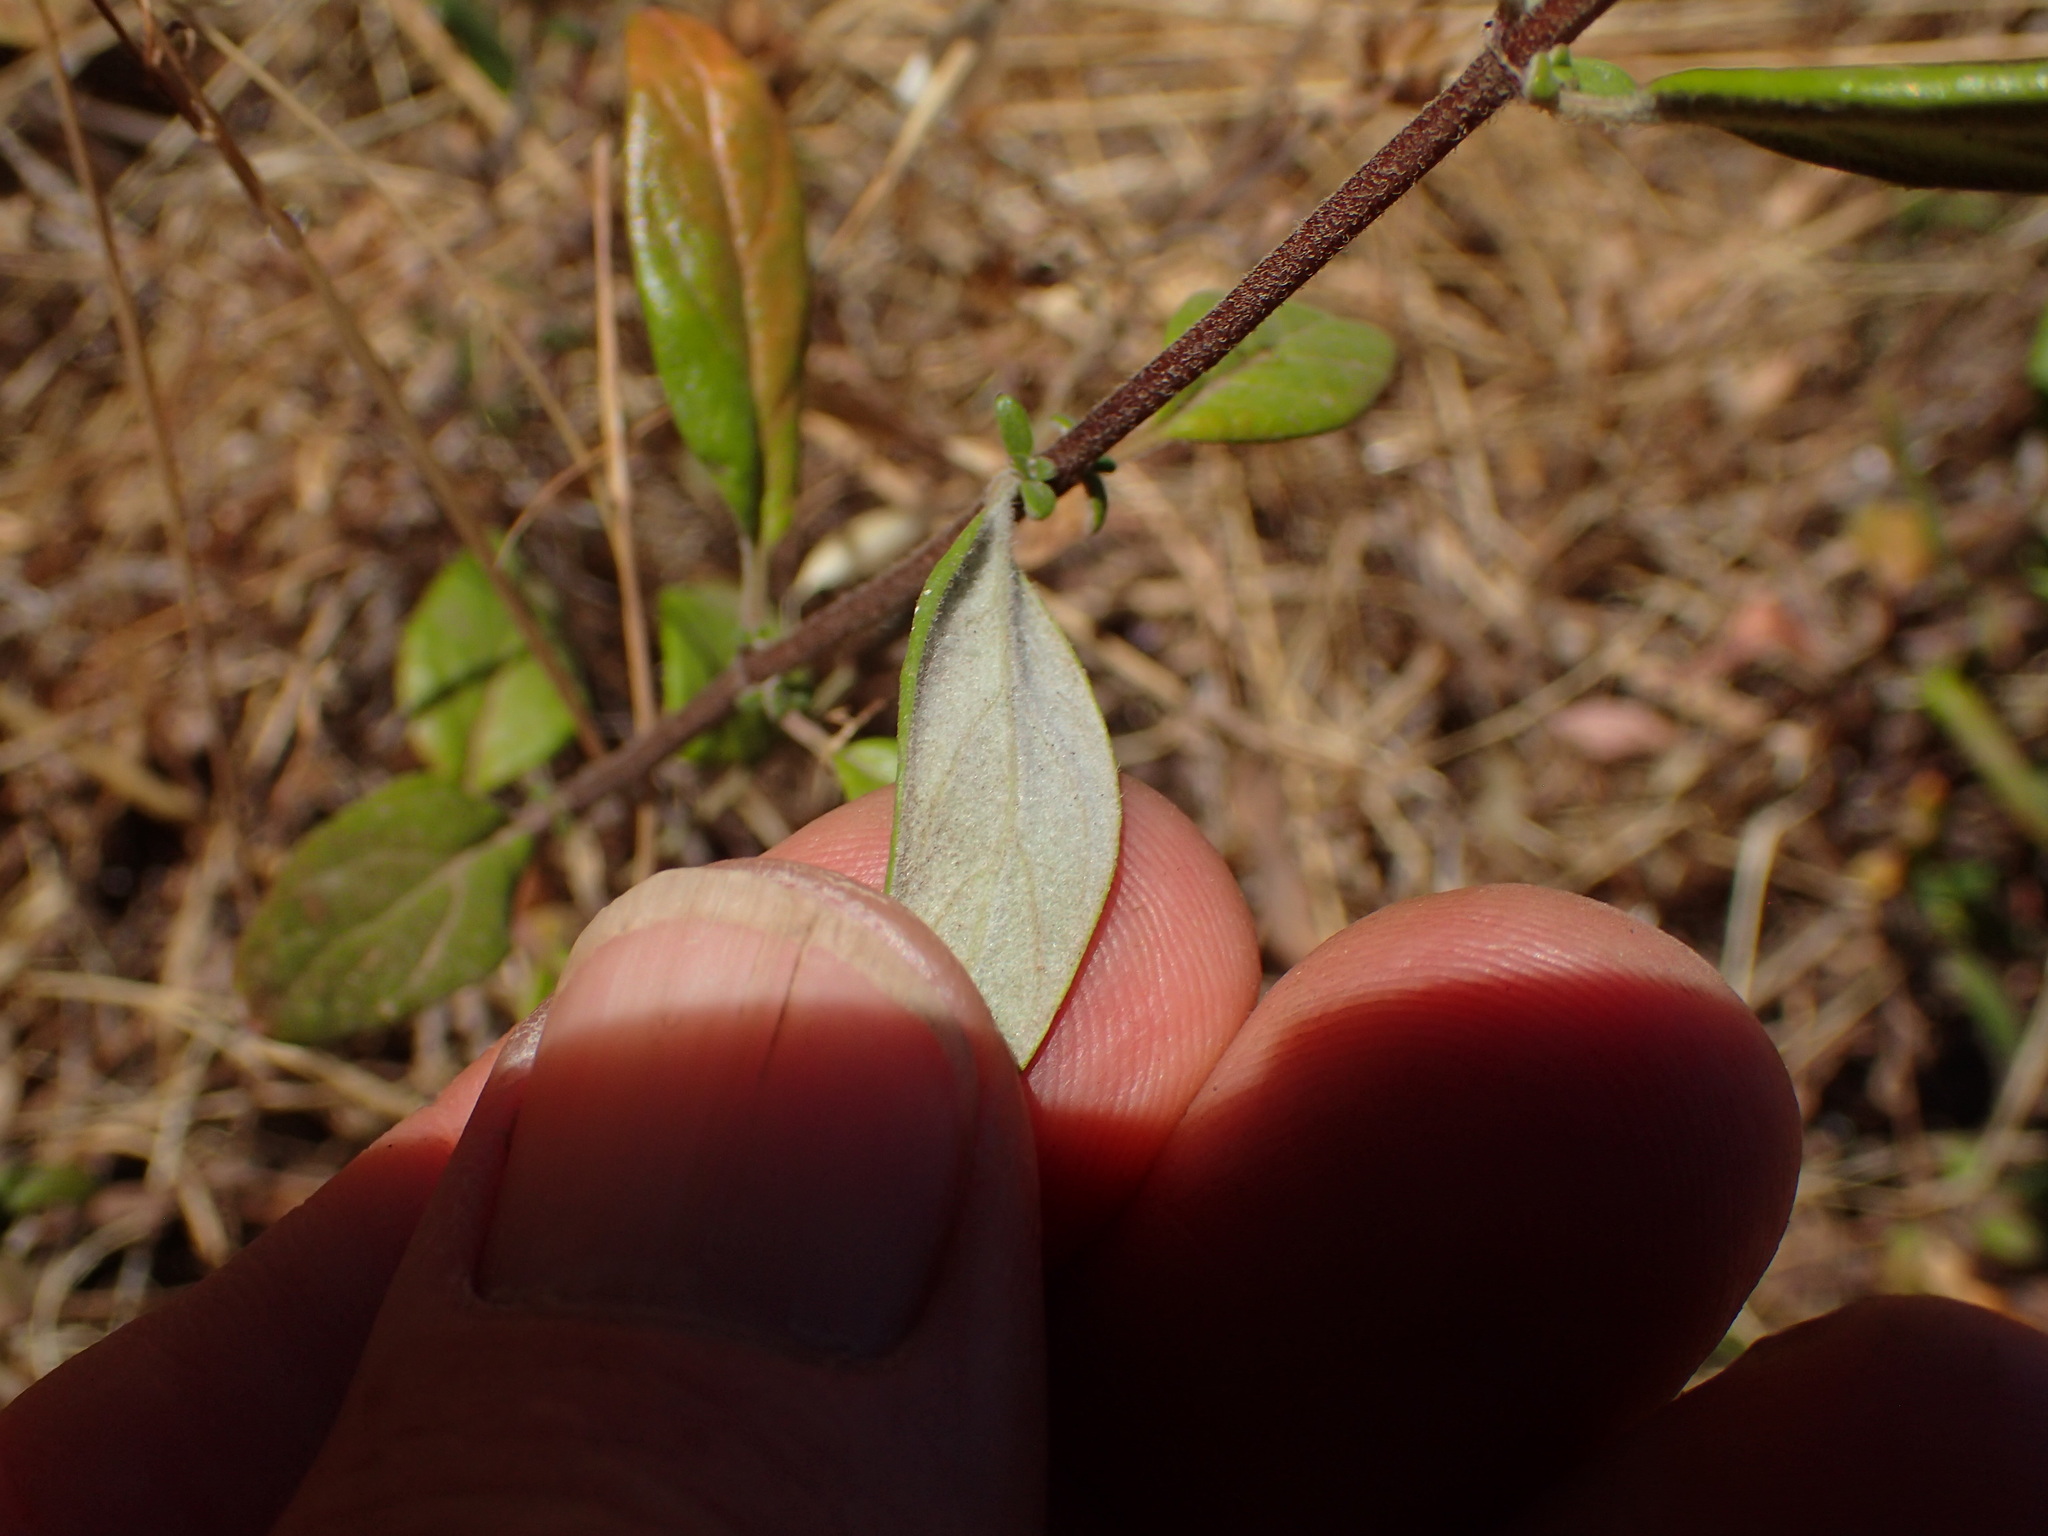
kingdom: Plantae
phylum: Tracheophyta
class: Magnoliopsida
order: Lamiales
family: Lamiaceae
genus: Monardella
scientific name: Monardella hypoleuca
